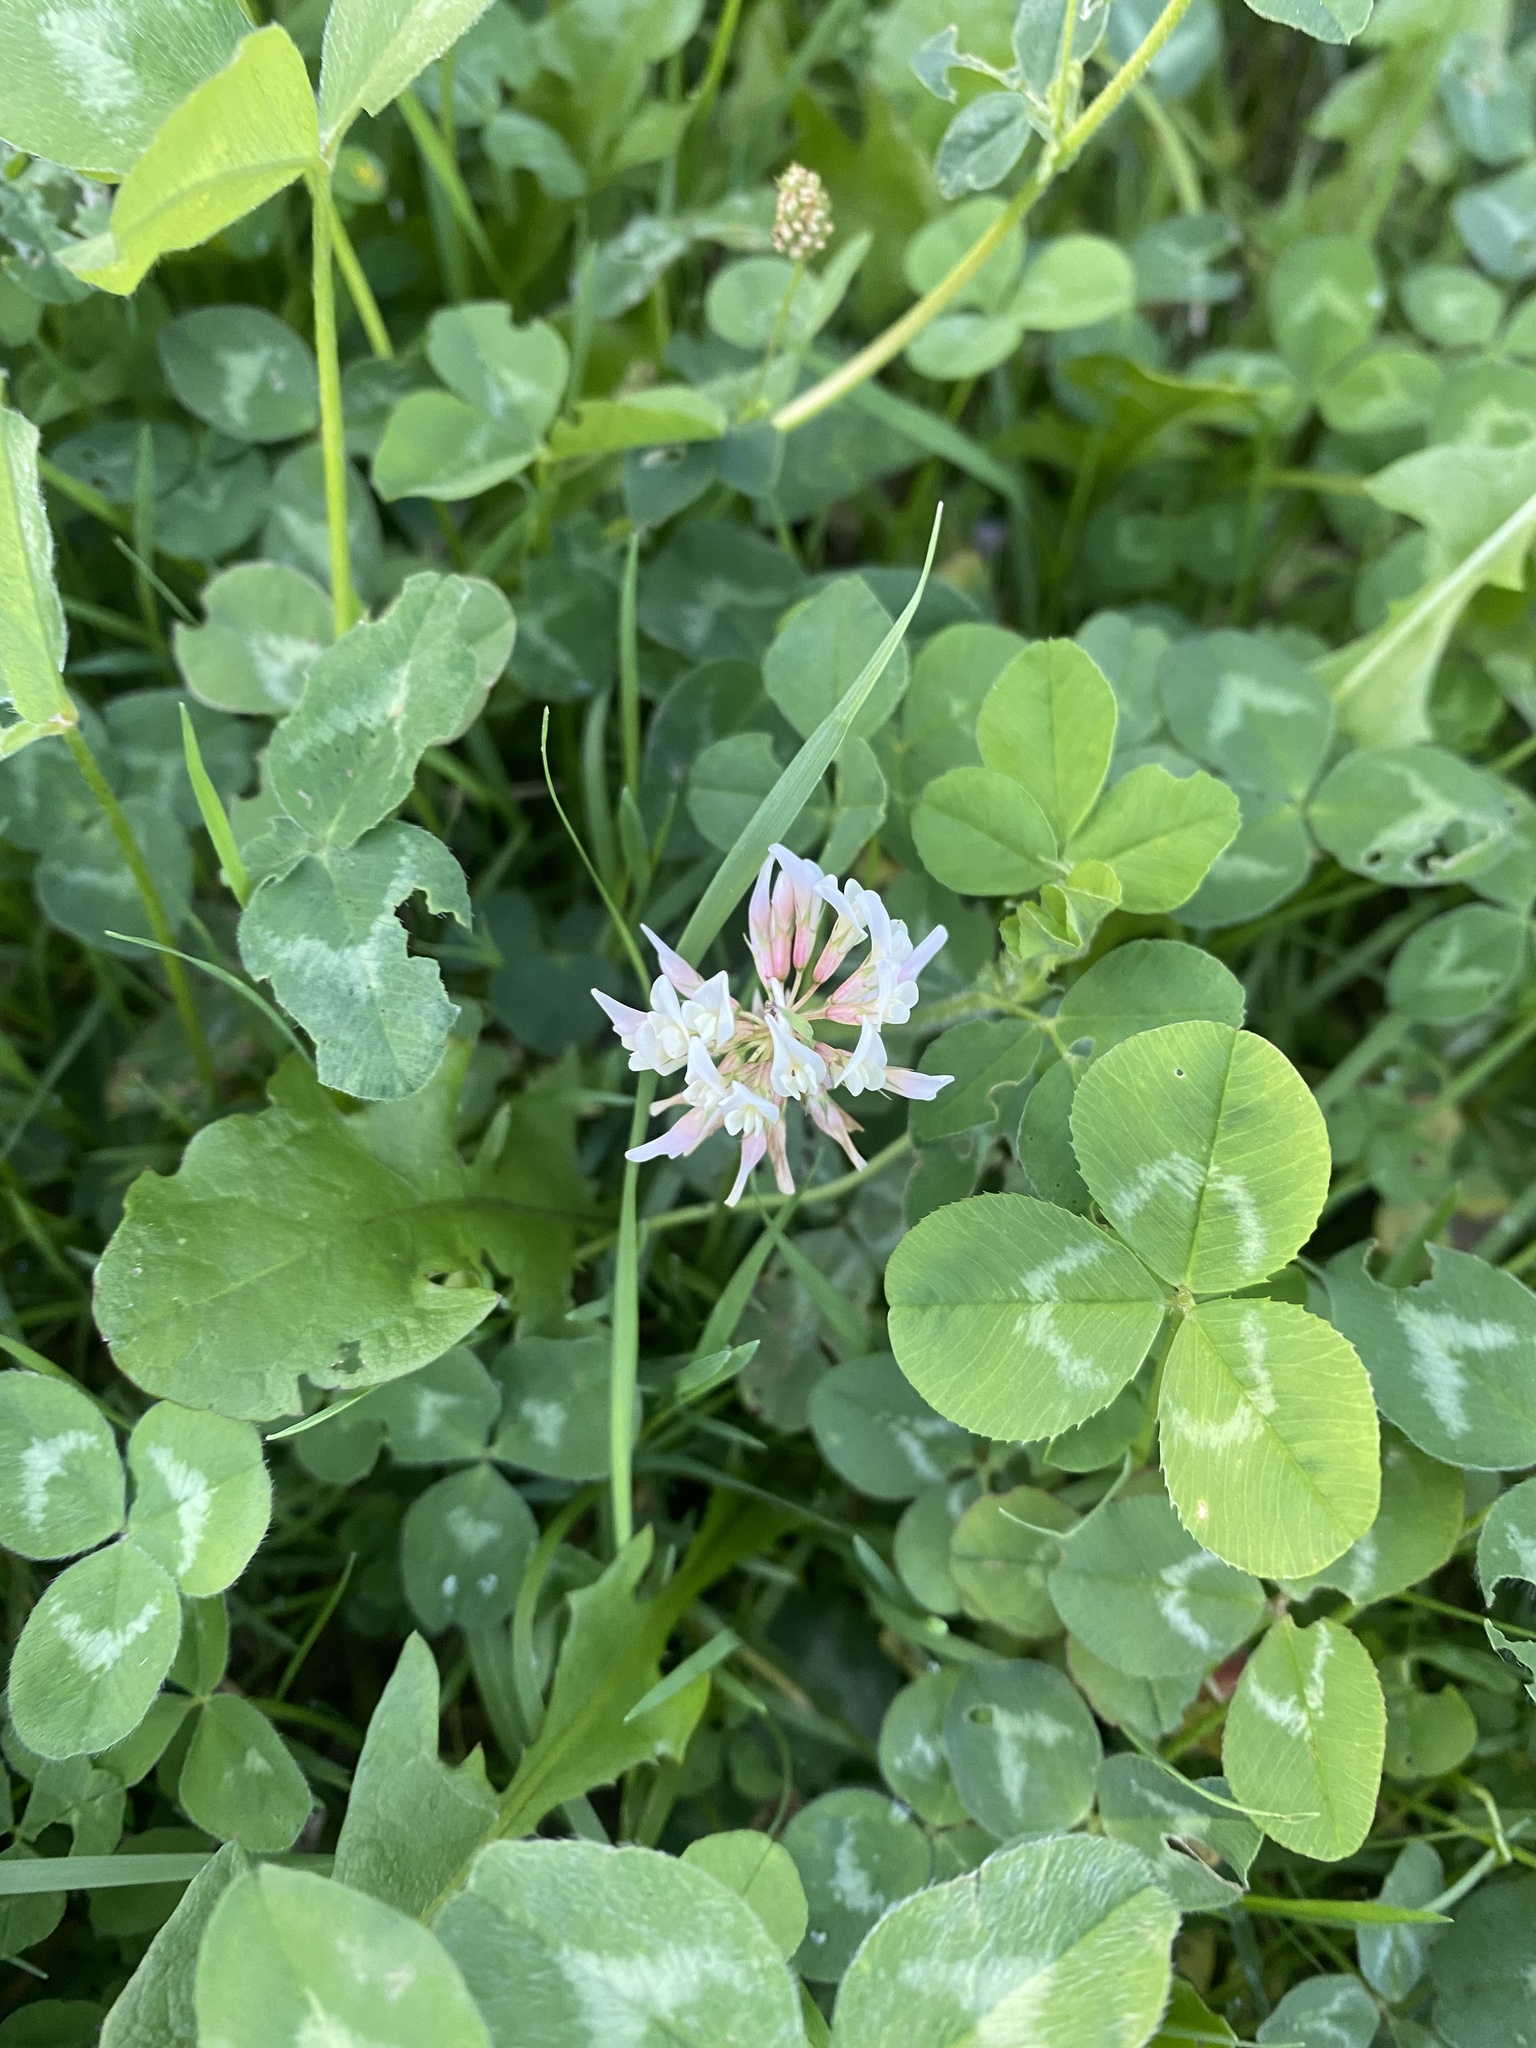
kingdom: Plantae
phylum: Tracheophyta
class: Magnoliopsida
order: Fabales
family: Fabaceae
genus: Trifolium
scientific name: Trifolium hybridum
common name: Alsike clover
